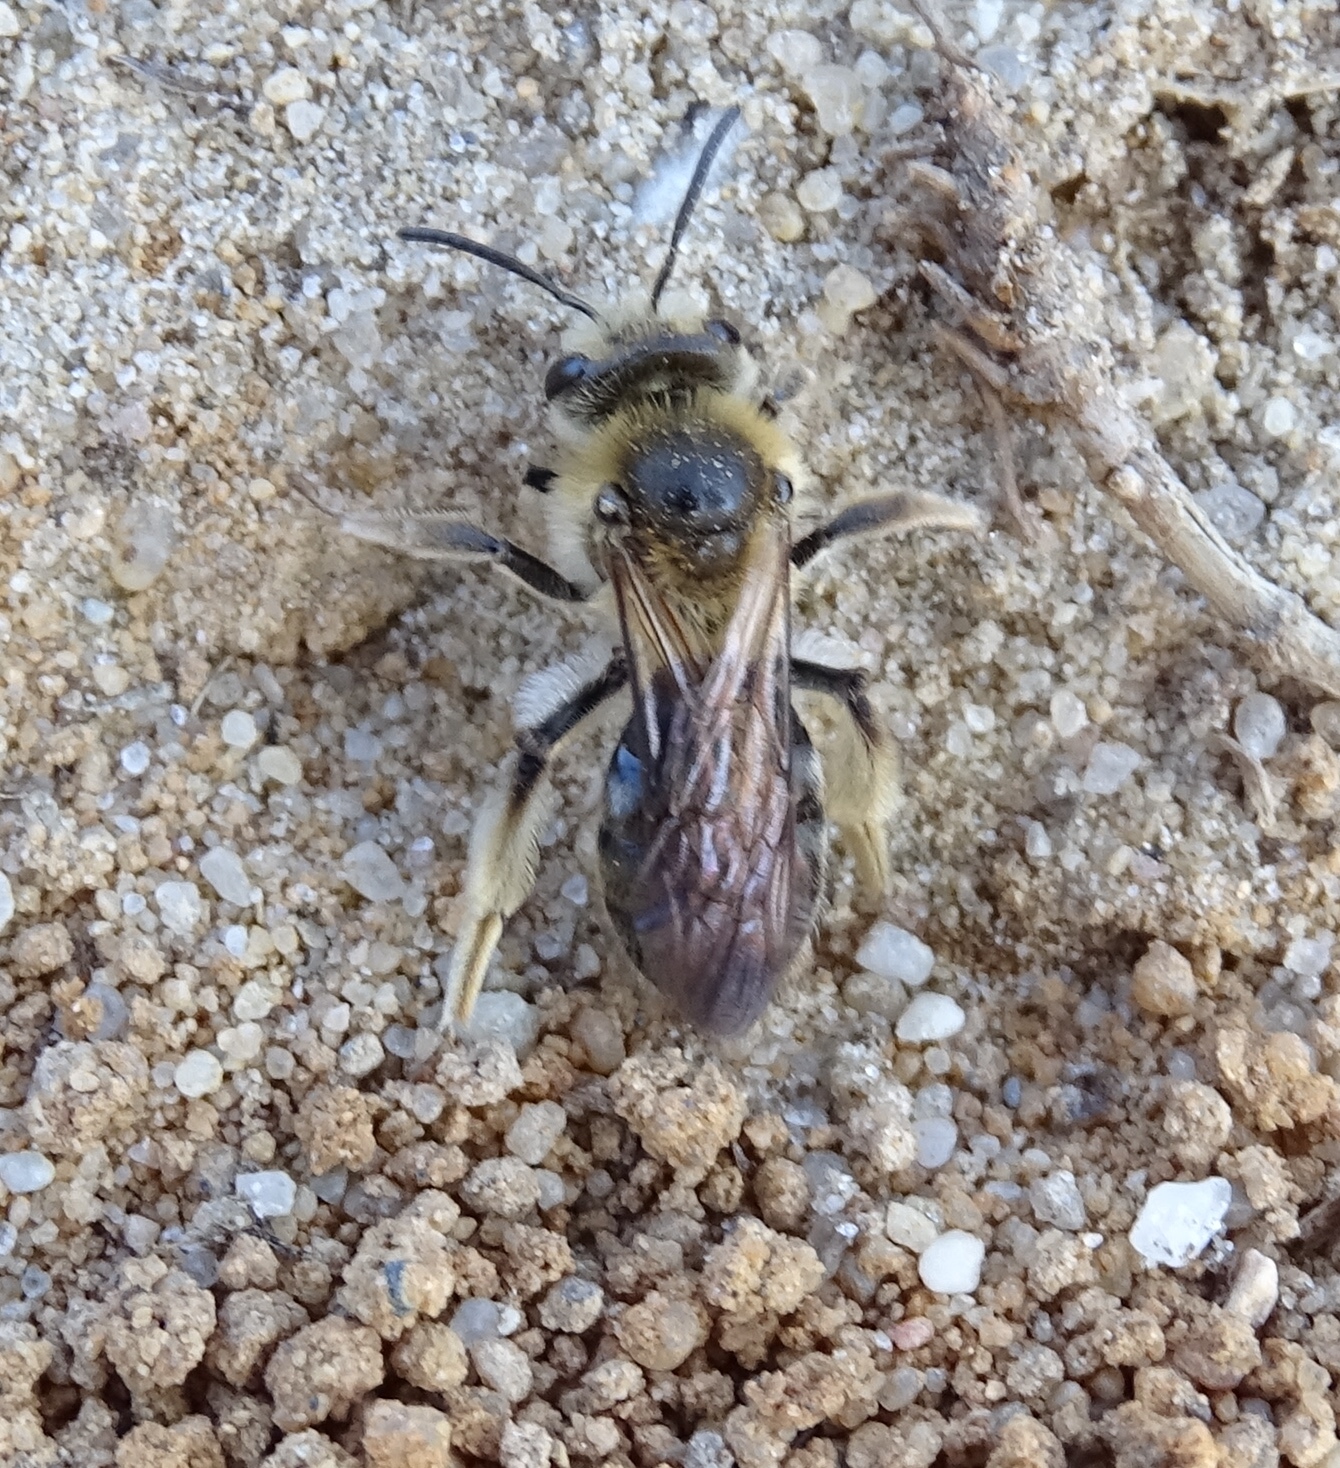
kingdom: Animalia
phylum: Arthropoda
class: Insecta
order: Hymenoptera
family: Andrenidae
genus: Andrena
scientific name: Andrena barbara
